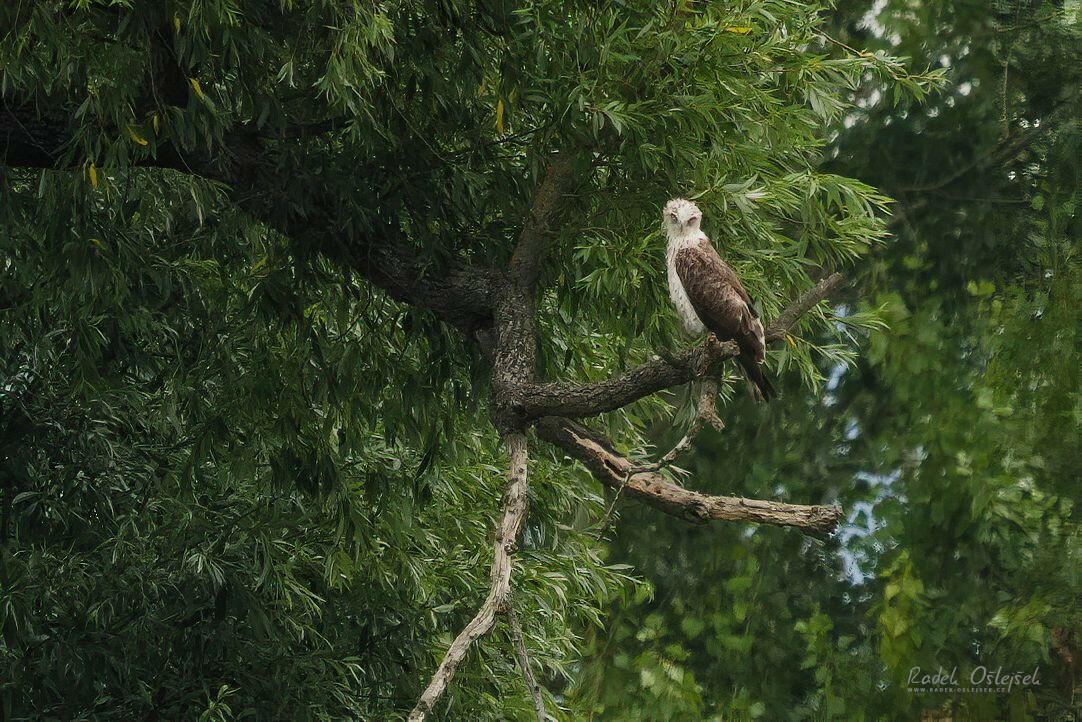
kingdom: Animalia
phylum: Chordata
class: Aves
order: Accipitriformes
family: Accipitridae
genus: Circaetus
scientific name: Circaetus gallicus
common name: Short-toed snake eagle
